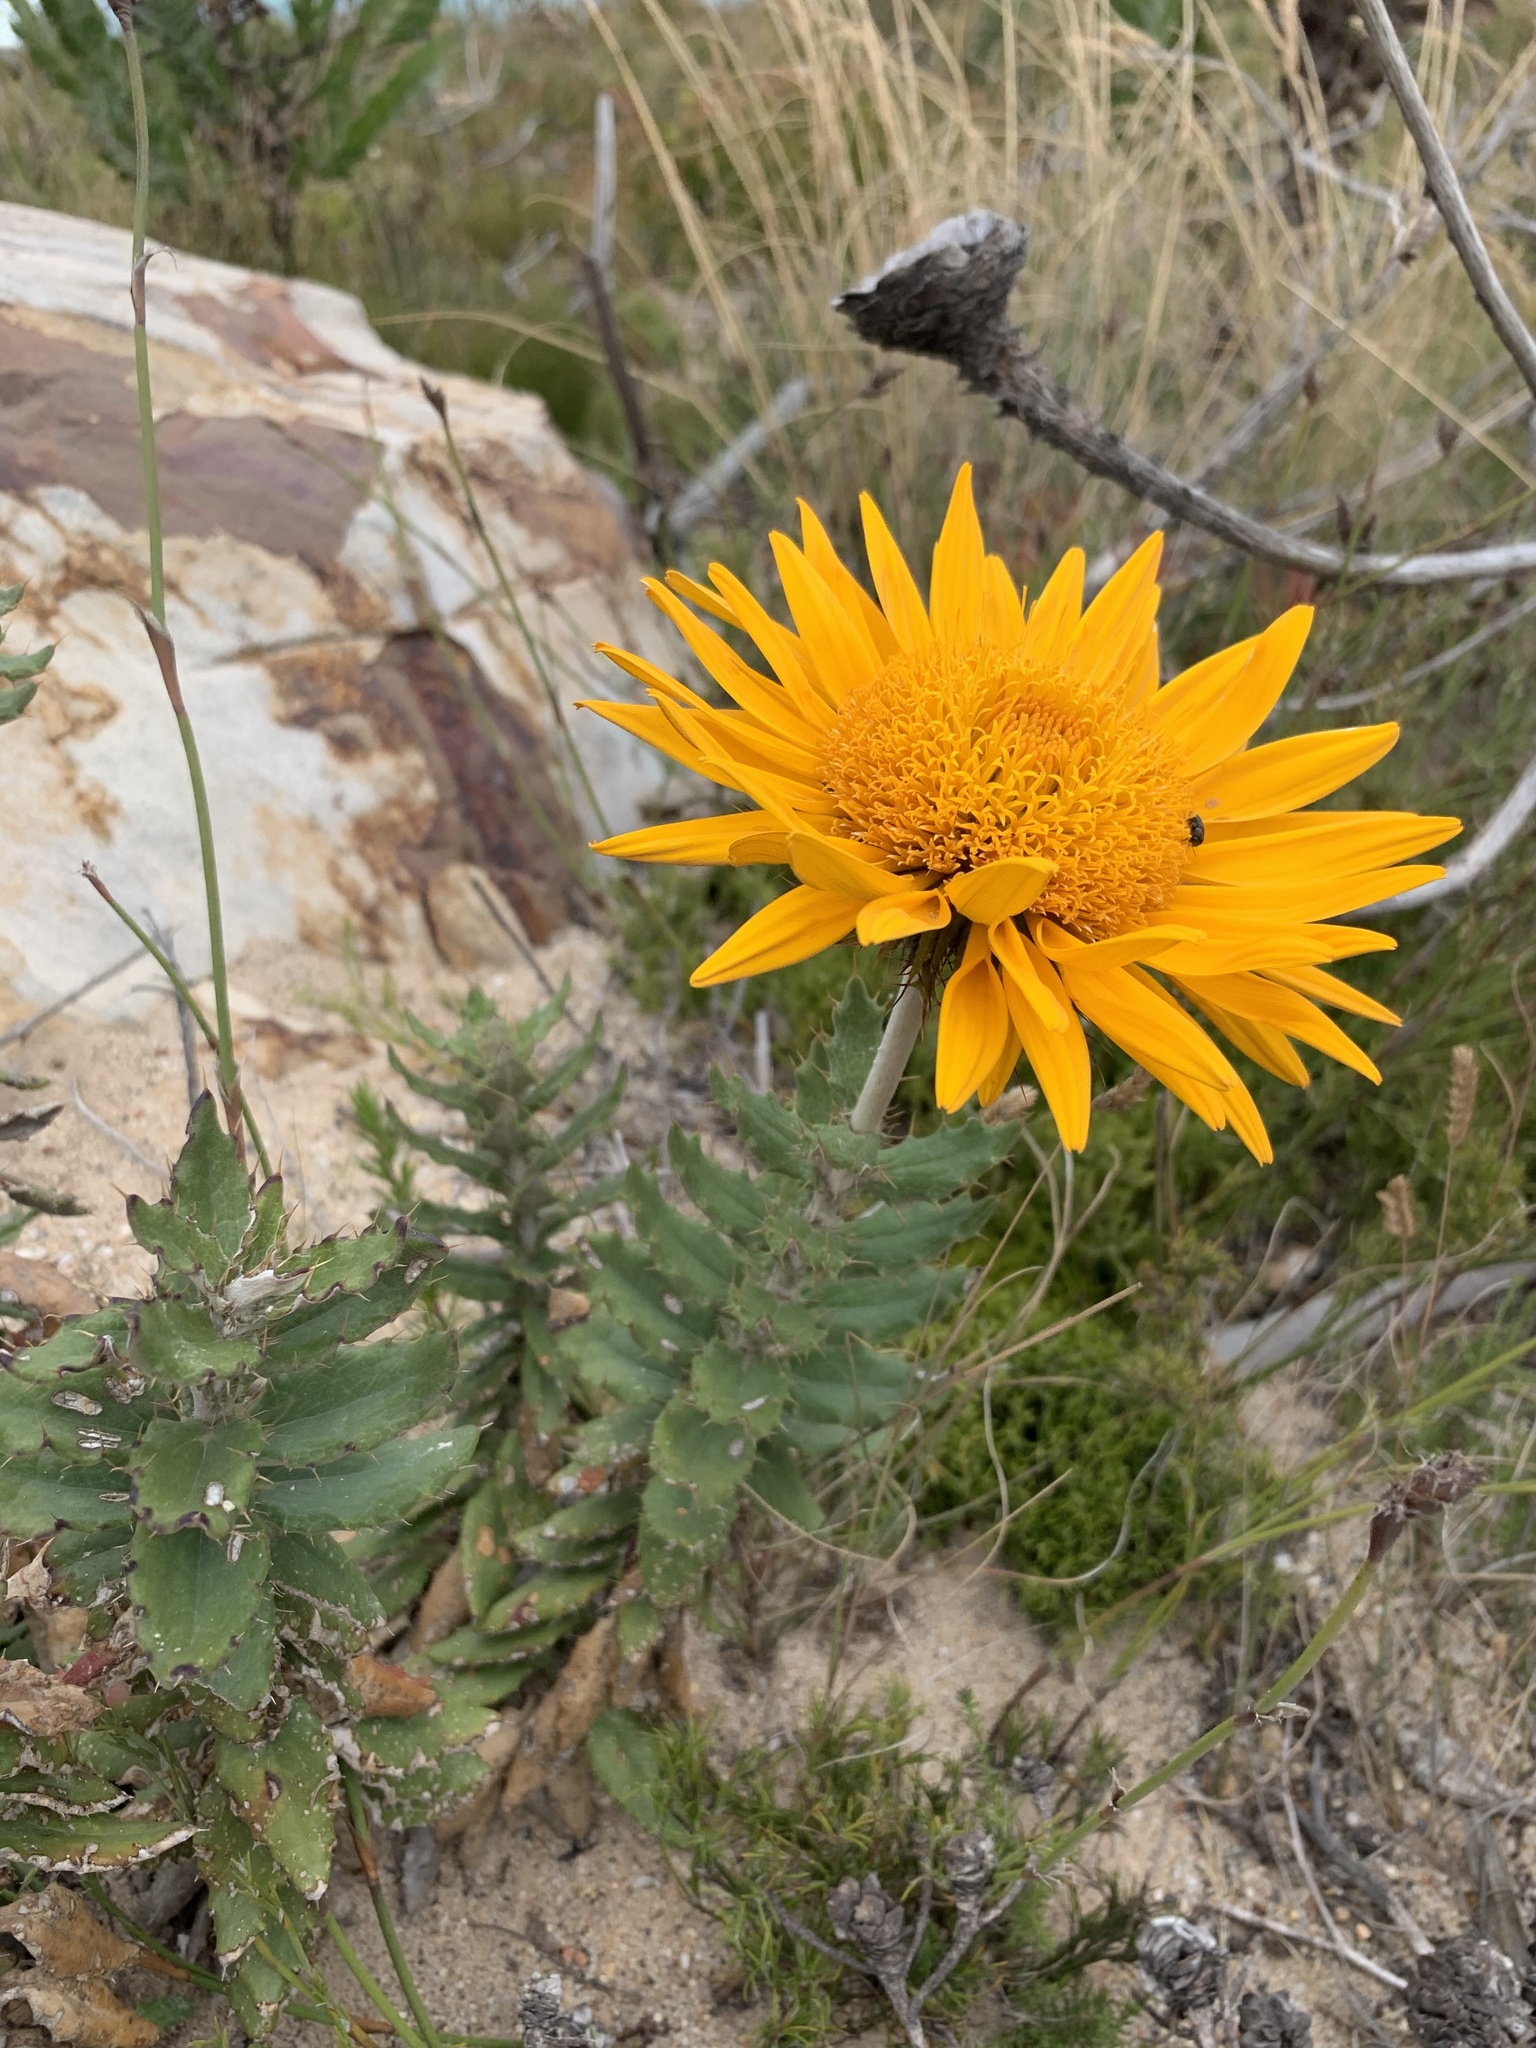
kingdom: Plantae
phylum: Tracheophyta
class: Magnoliopsida
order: Asterales
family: Asteraceae
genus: Berkheya
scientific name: Berkheya barbata
